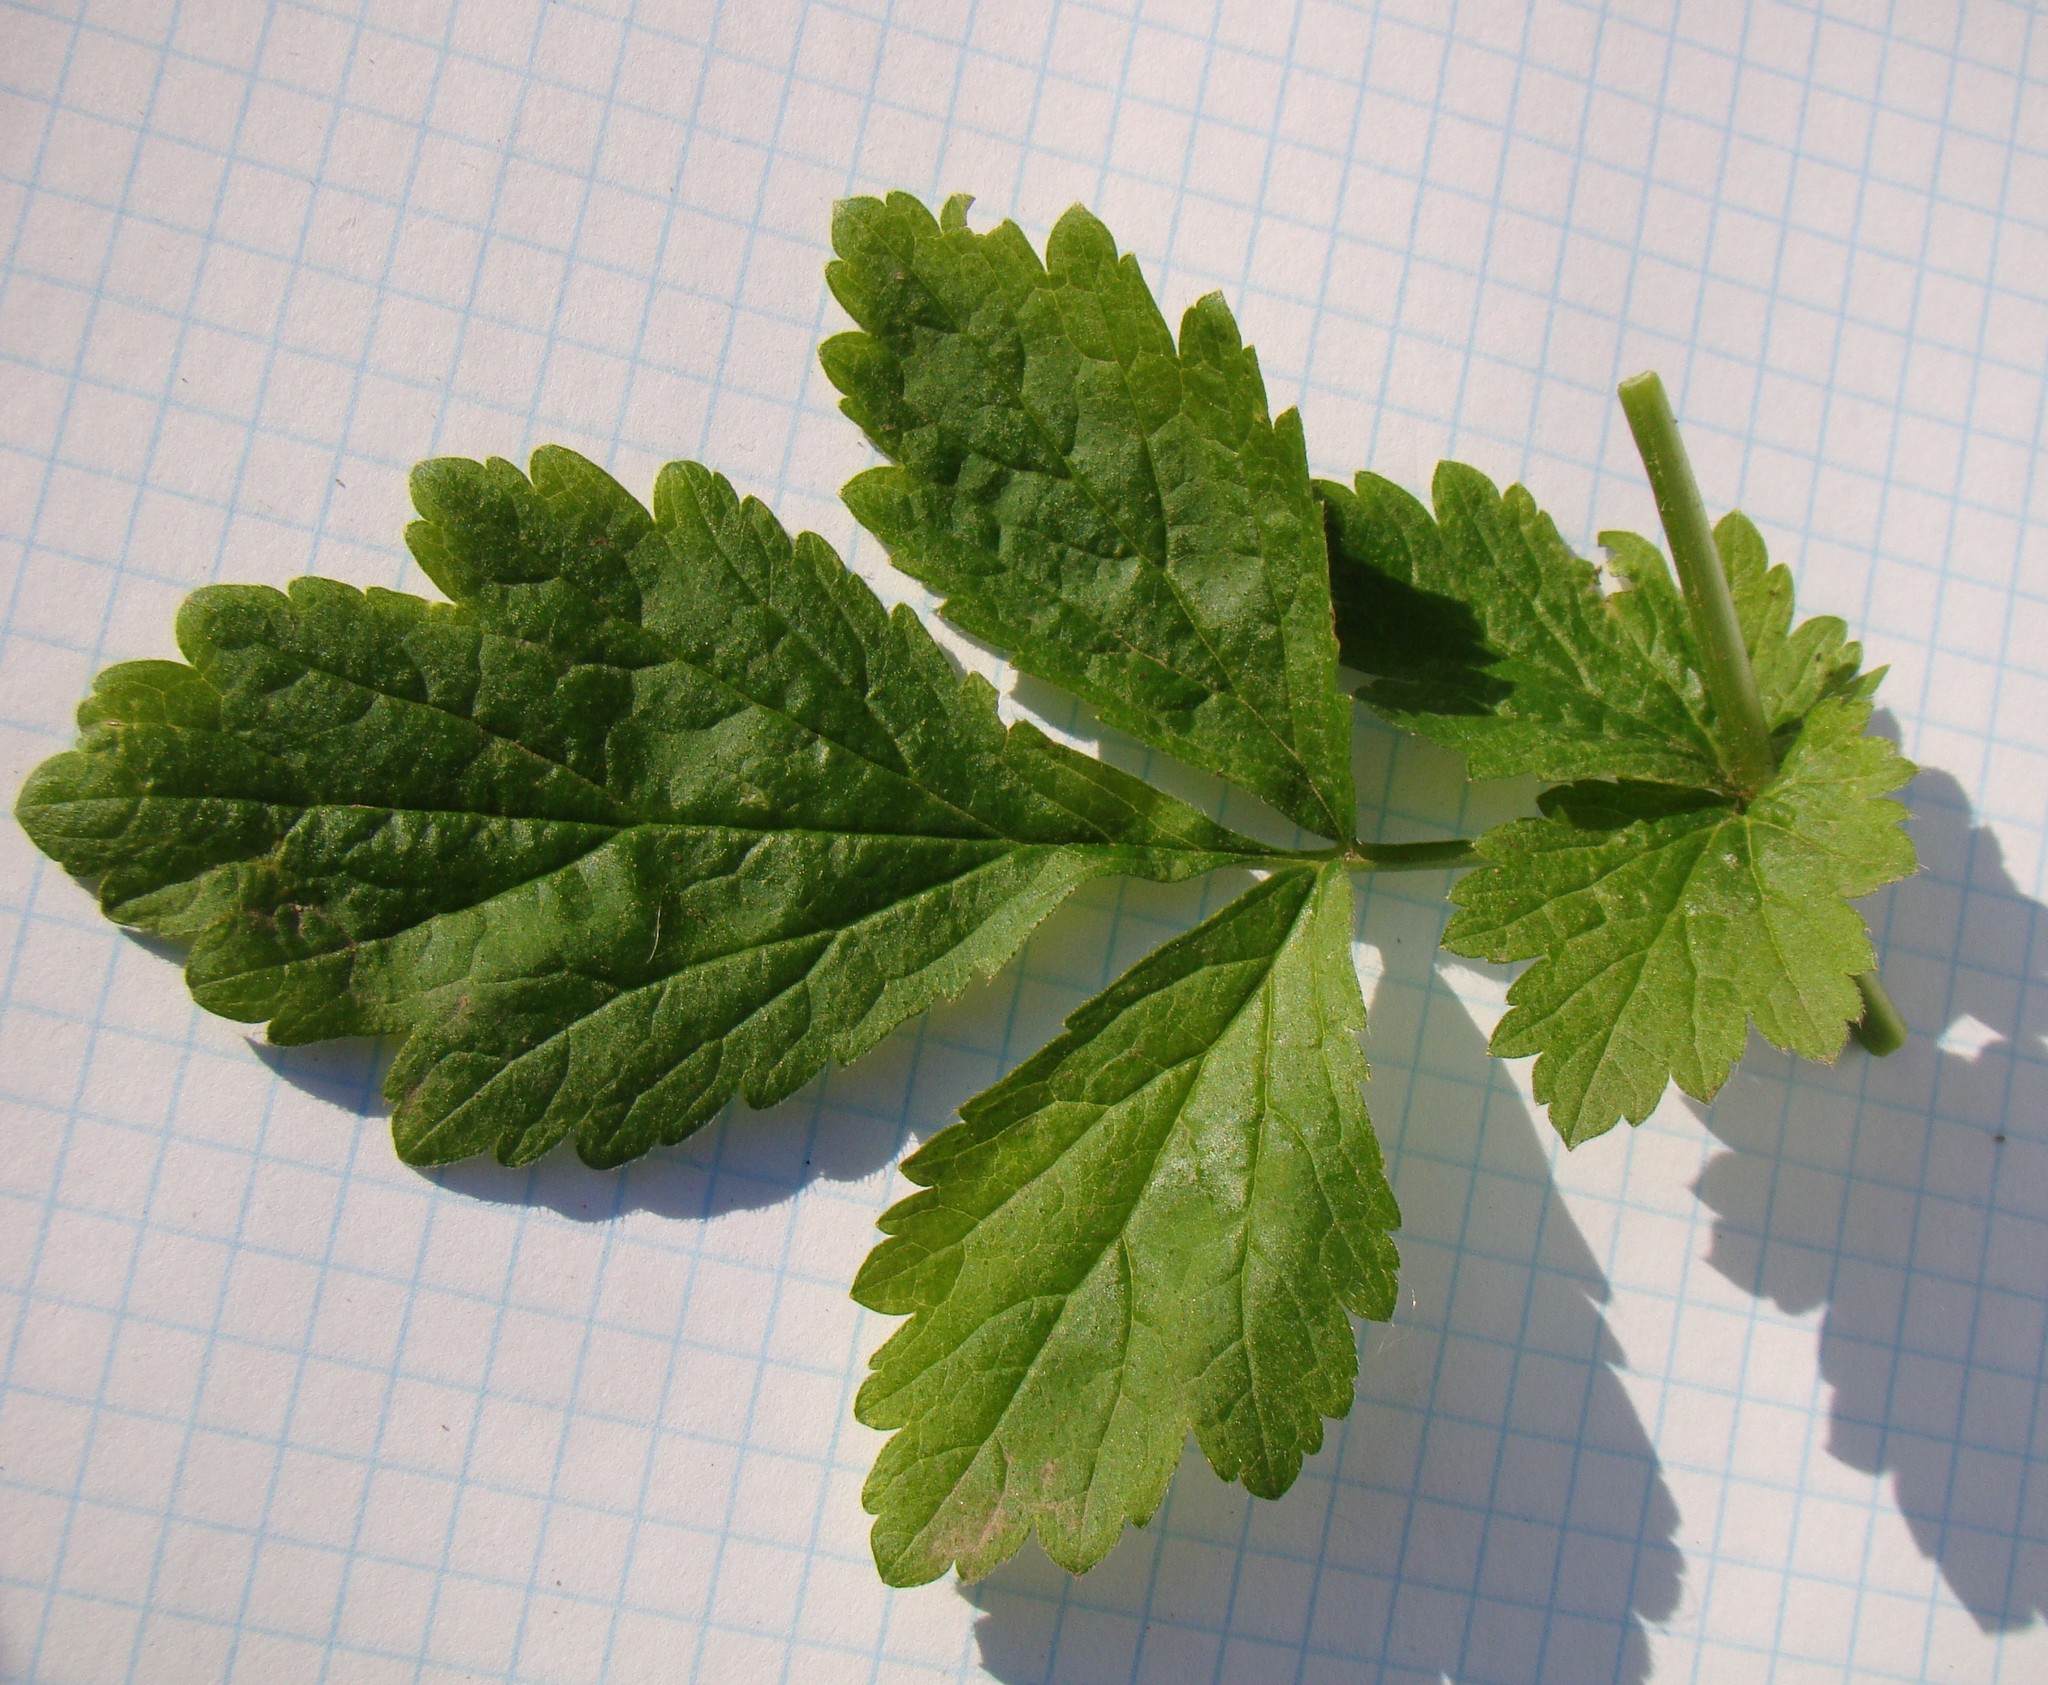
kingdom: Plantae
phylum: Tracheophyta
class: Magnoliopsida
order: Rosales
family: Rosaceae
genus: Geum
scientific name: Geum urbanum
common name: Wood avens
